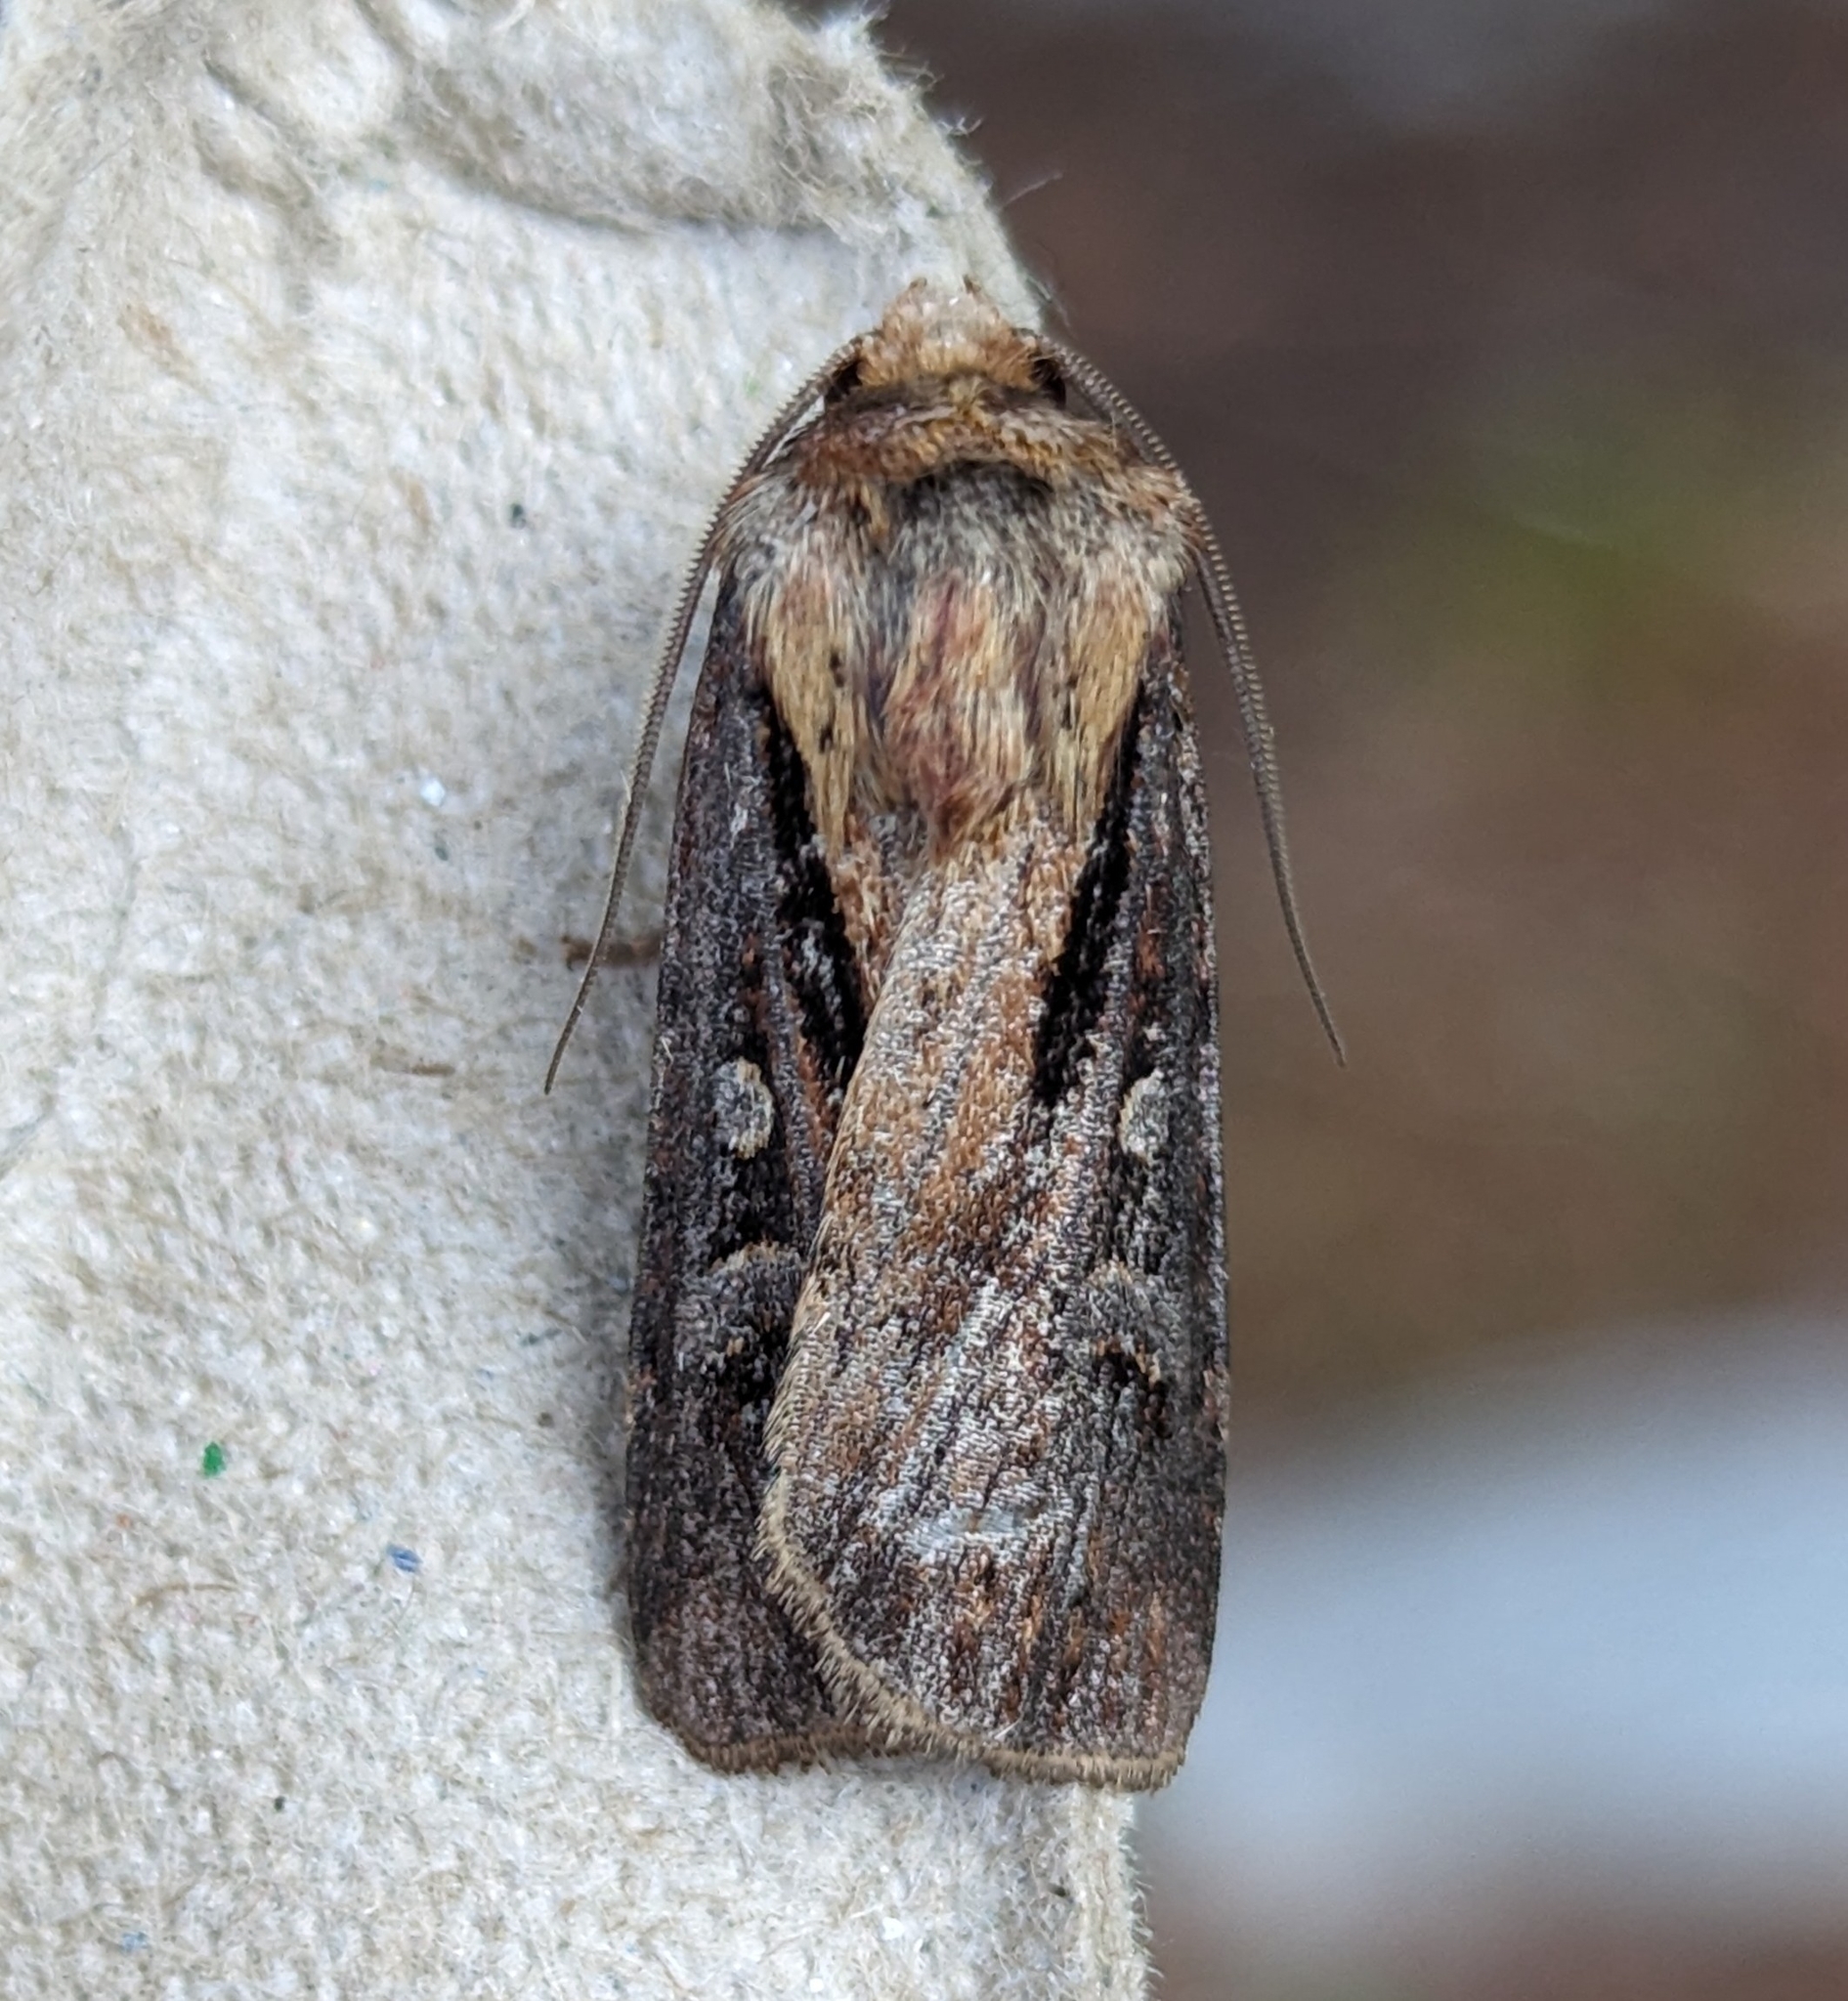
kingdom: Animalia
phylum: Arthropoda
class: Insecta
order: Lepidoptera
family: Noctuidae
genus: Agrotis
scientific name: Agrotis vancouverensis
